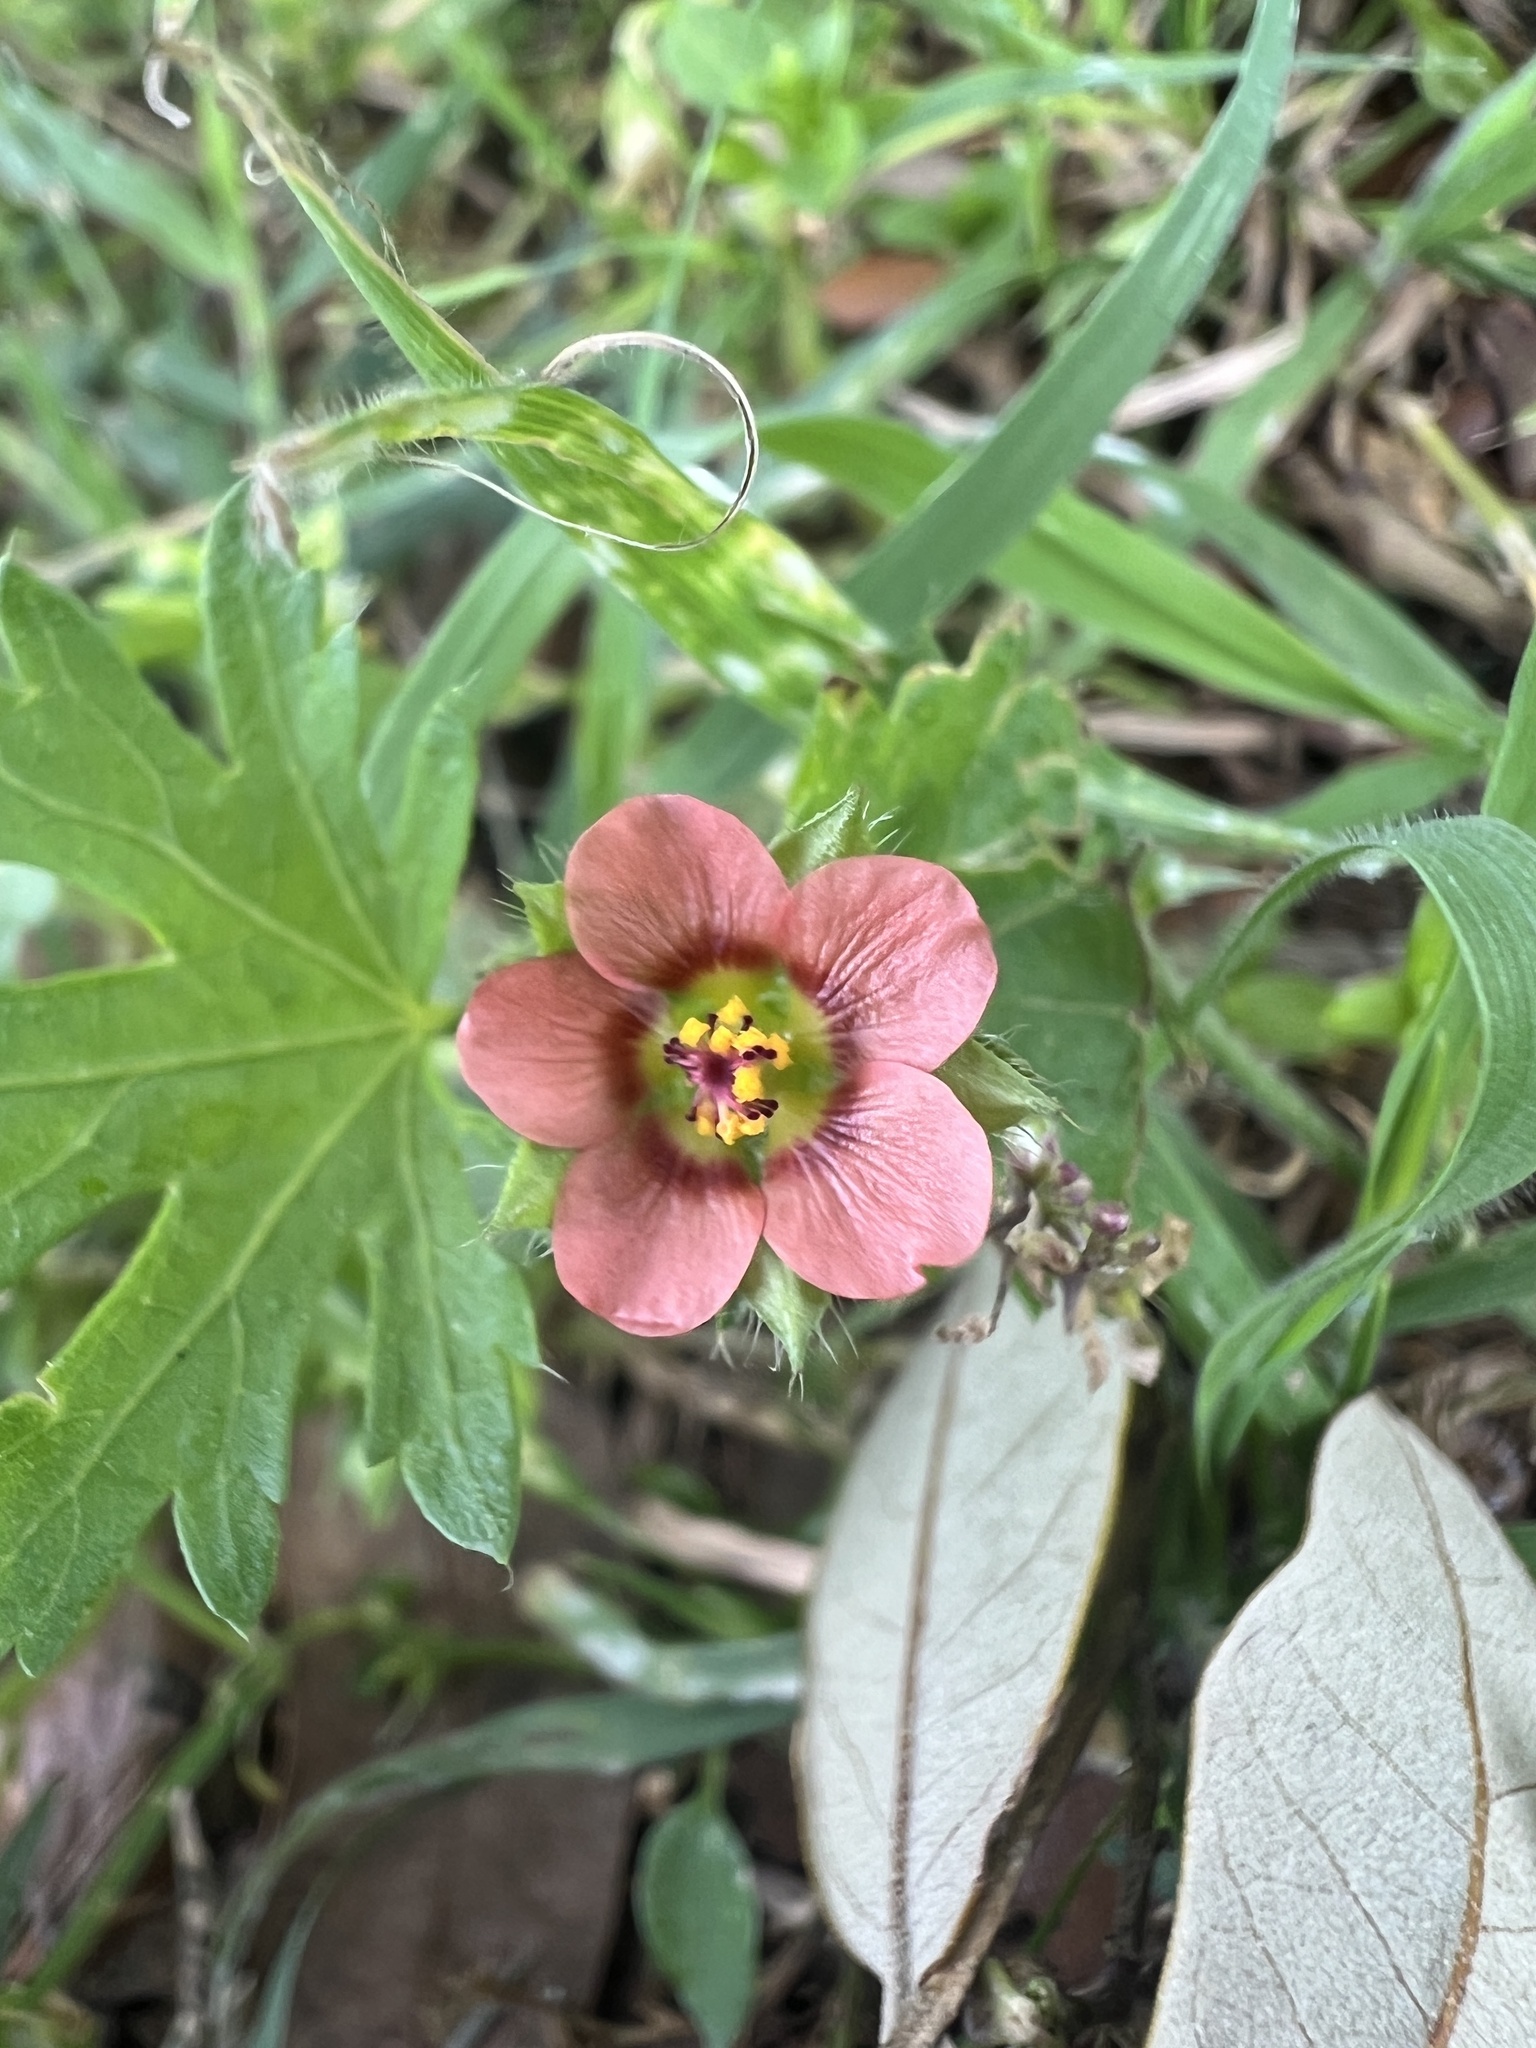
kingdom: Plantae
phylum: Tracheophyta
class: Magnoliopsida
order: Malvales
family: Malvaceae
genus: Modiola
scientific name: Modiola caroliniana
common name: Carolina bristlemallow
